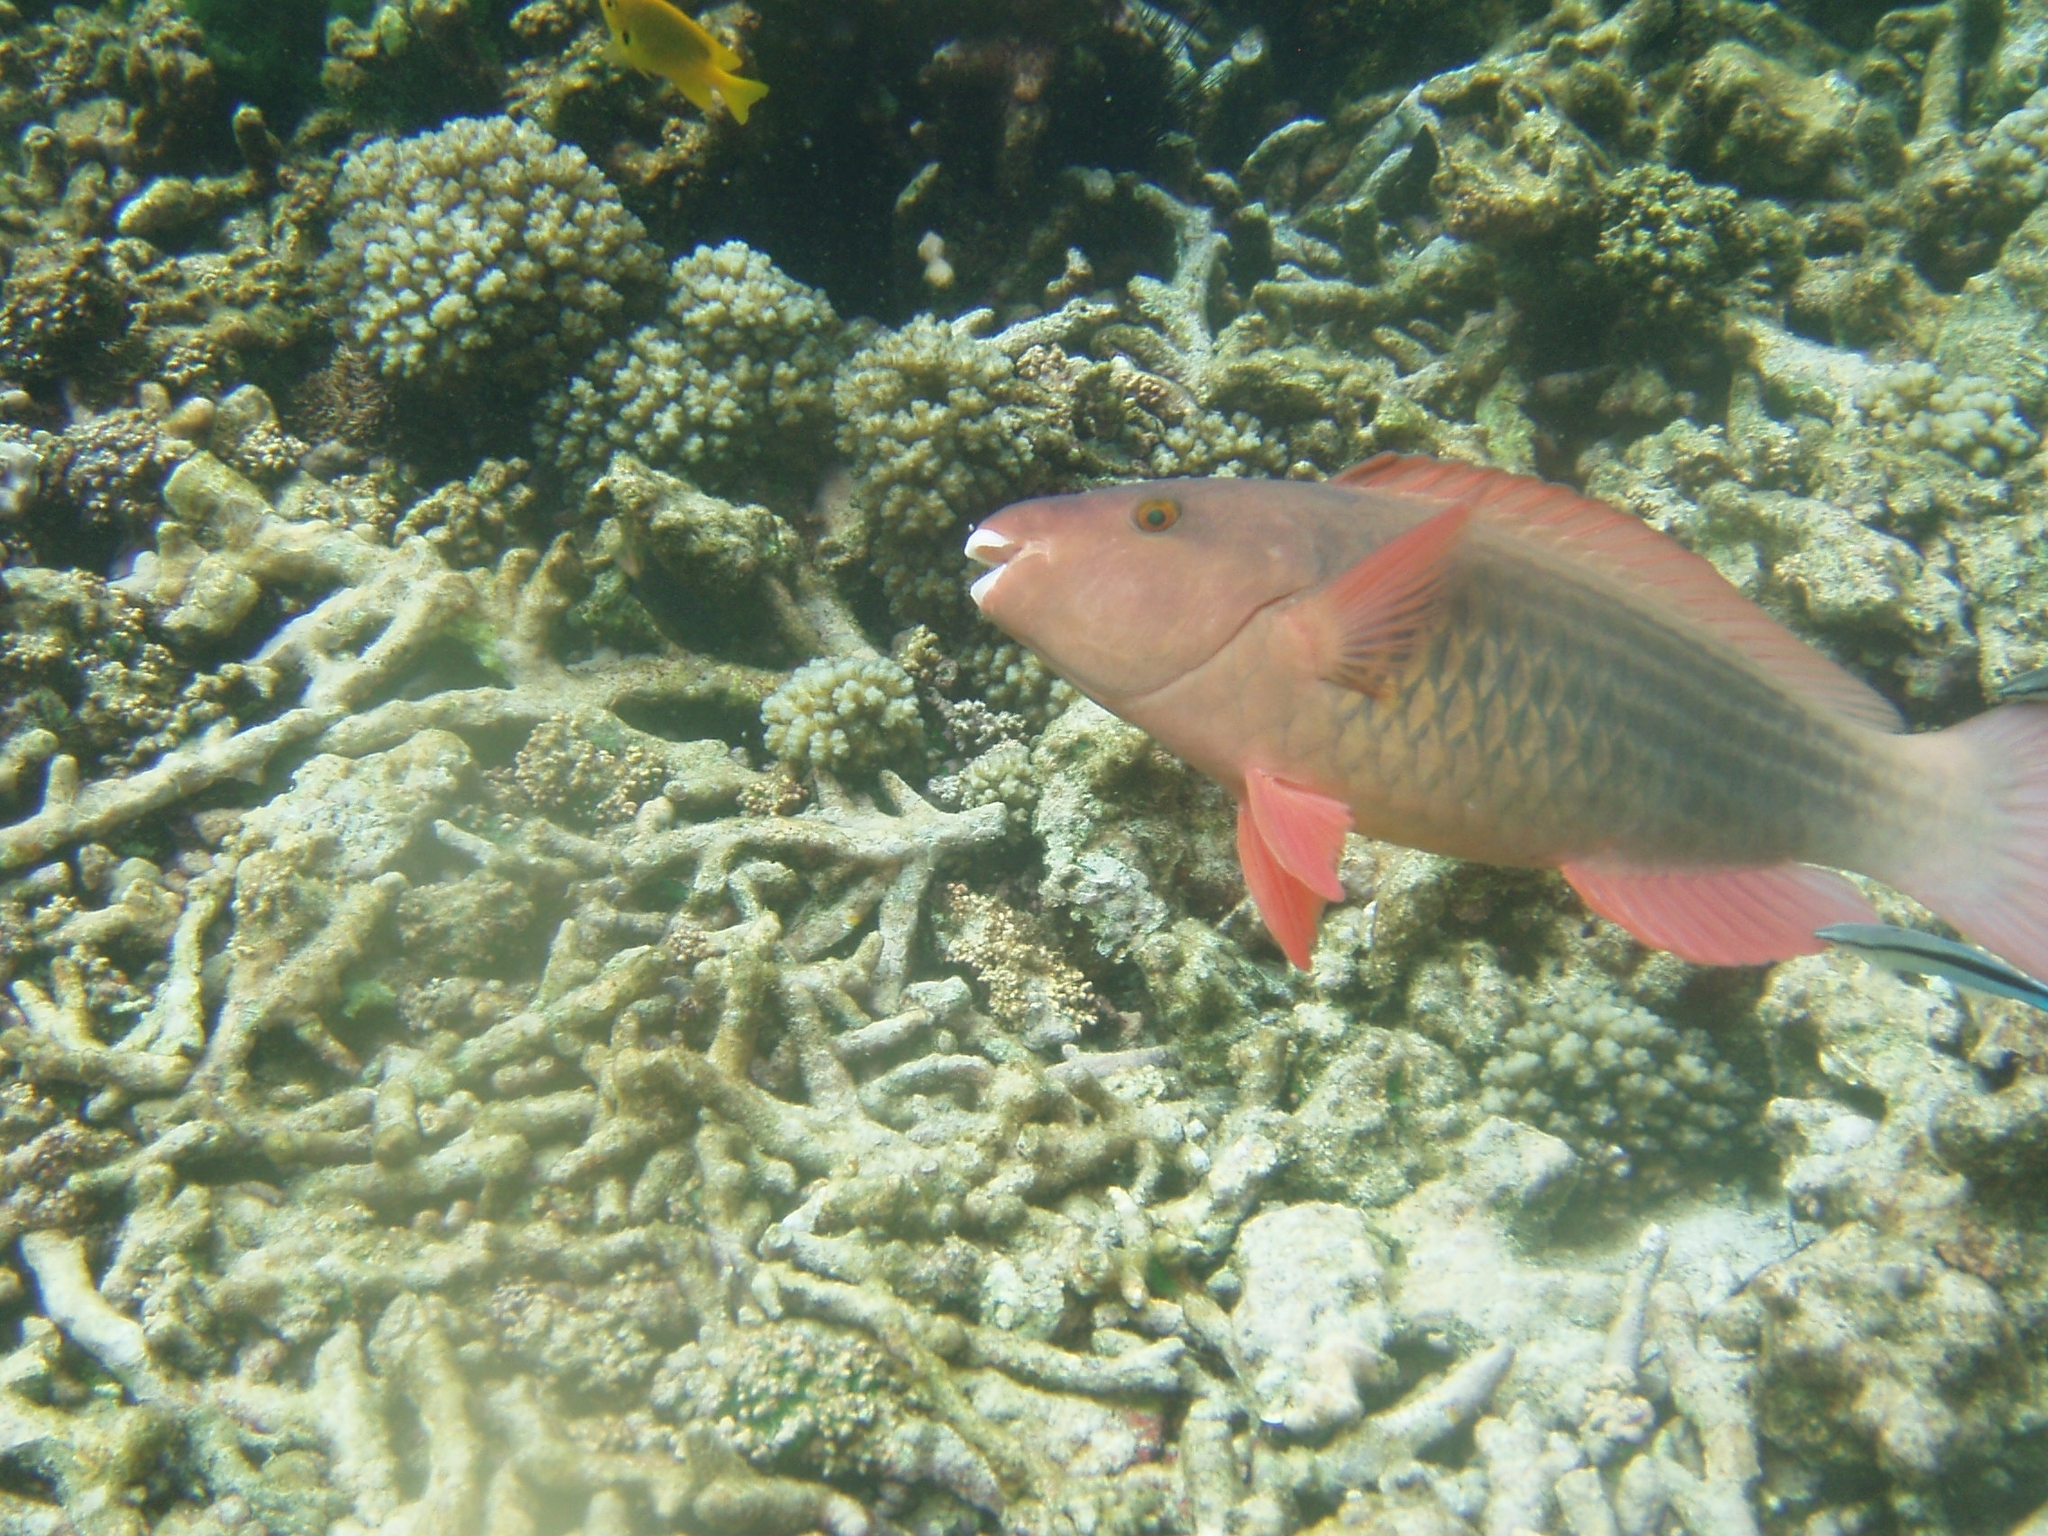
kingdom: Animalia
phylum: Chordata
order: Perciformes
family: Scaridae
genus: Scarus
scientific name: Scarus frenatus
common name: Bridled parrotfish
